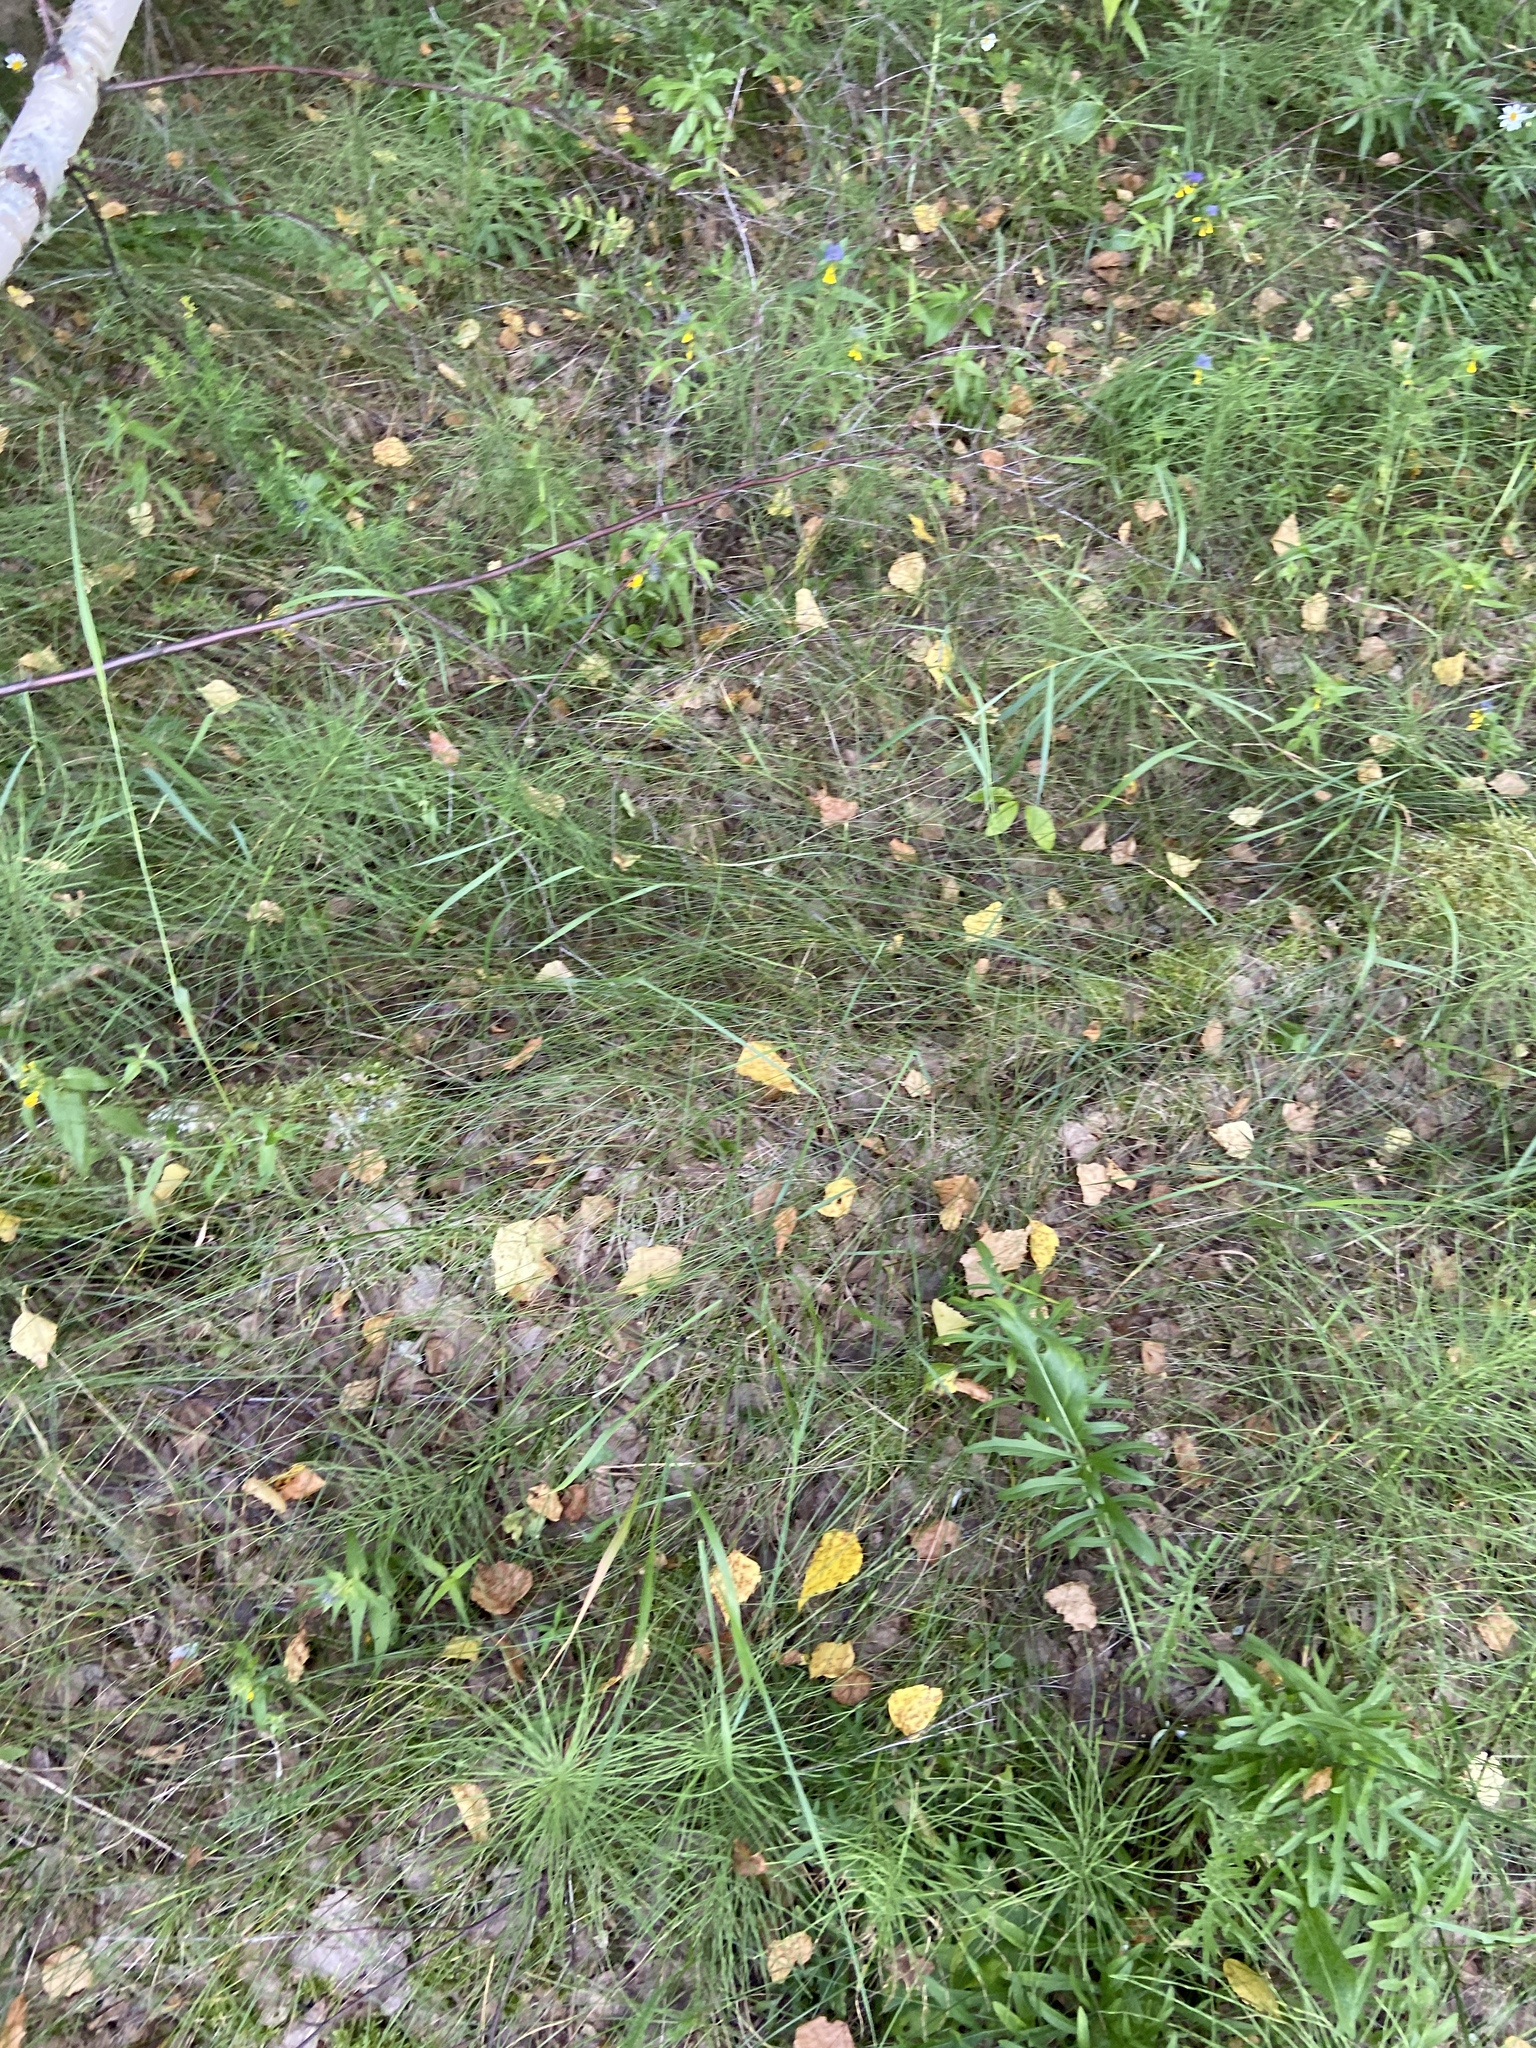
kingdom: Plantae
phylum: Tracheophyta
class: Magnoliopsida
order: Asterales
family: Asteraceae
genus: Centaurea
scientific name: Centaurea scabiosa
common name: Greater knapweed
